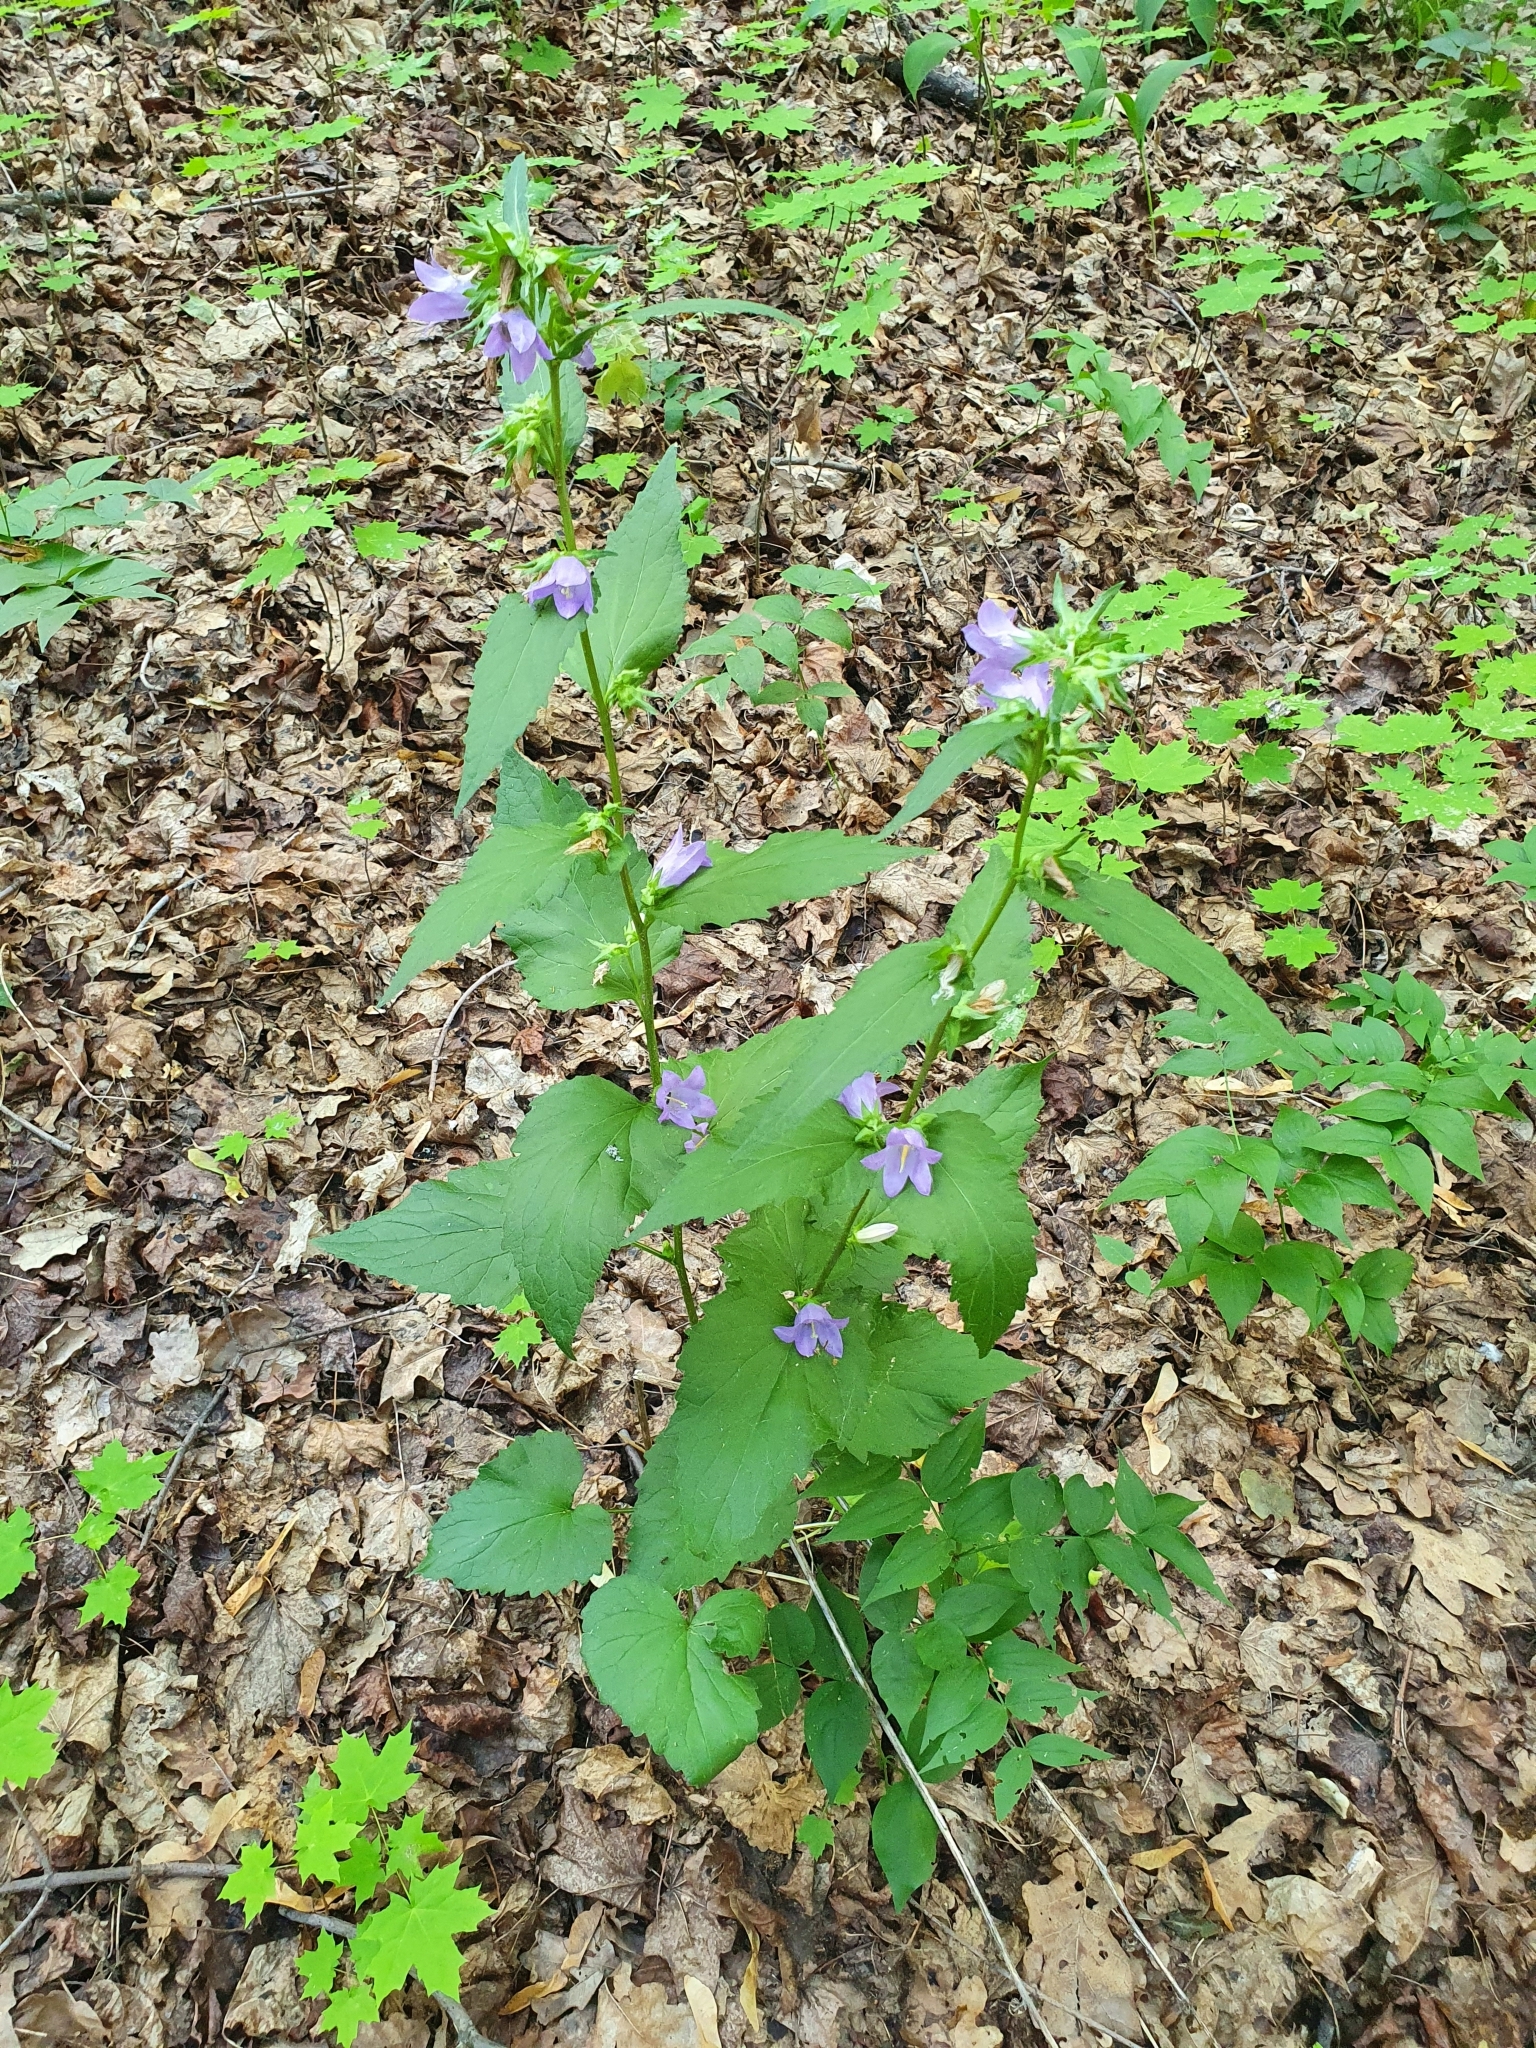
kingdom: Plantae
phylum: Tracheophyta
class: Magnoliopsida
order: Asterales
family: Campanulaceae
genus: Campanula
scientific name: Campanula trachelium
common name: Nettle-leaved bellflower
